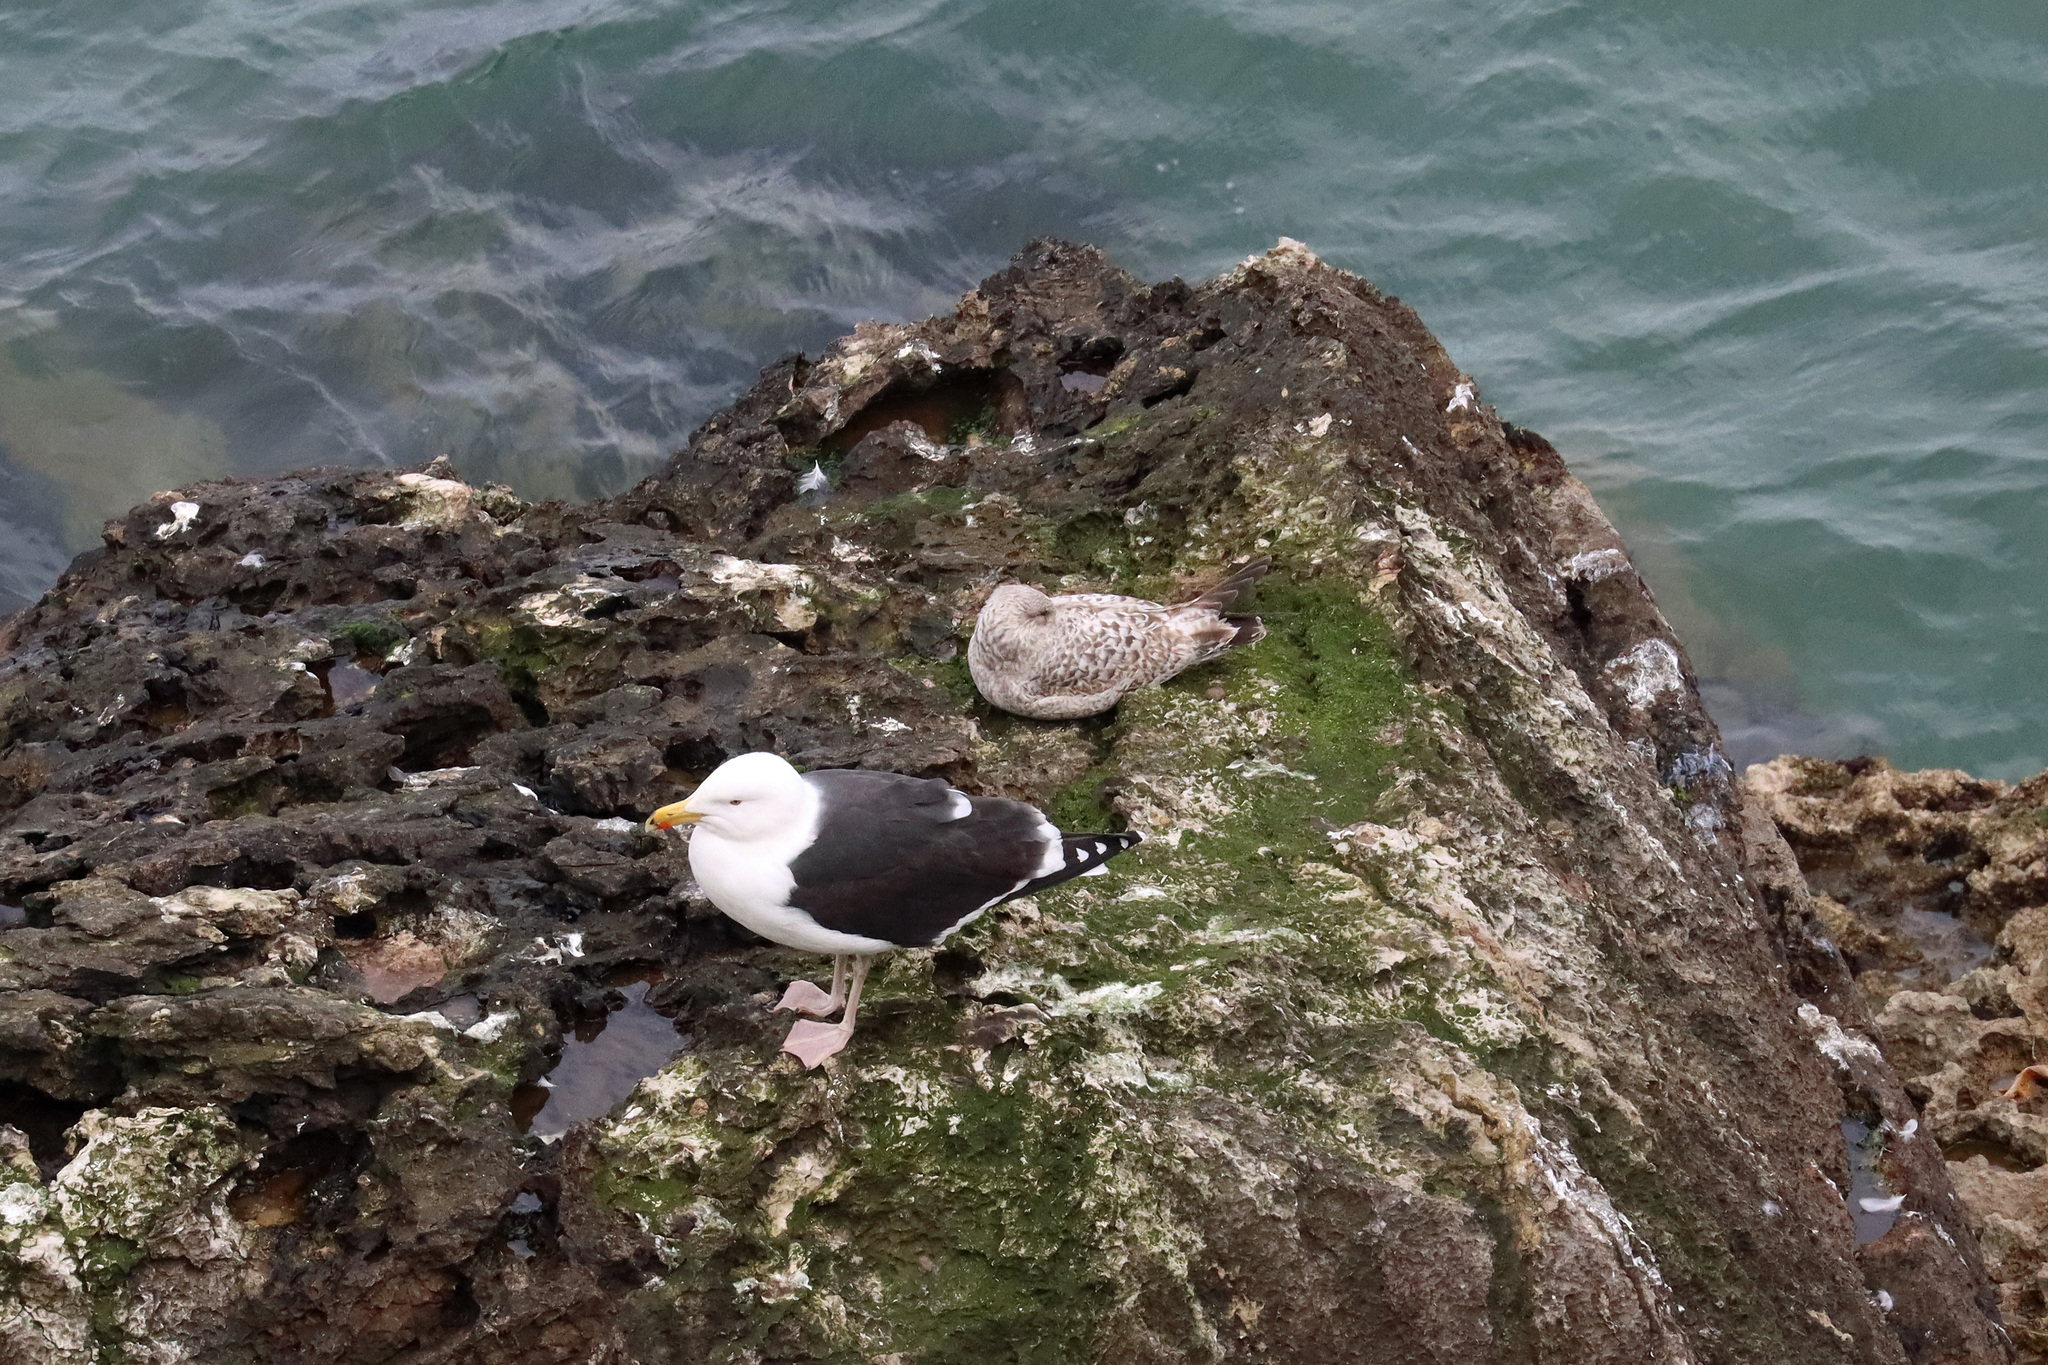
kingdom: Animalia
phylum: Chordata
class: Aves
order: Charadriiformes
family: Laridae
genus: Larus
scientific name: Larus marinus
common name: Great black-backed gull
